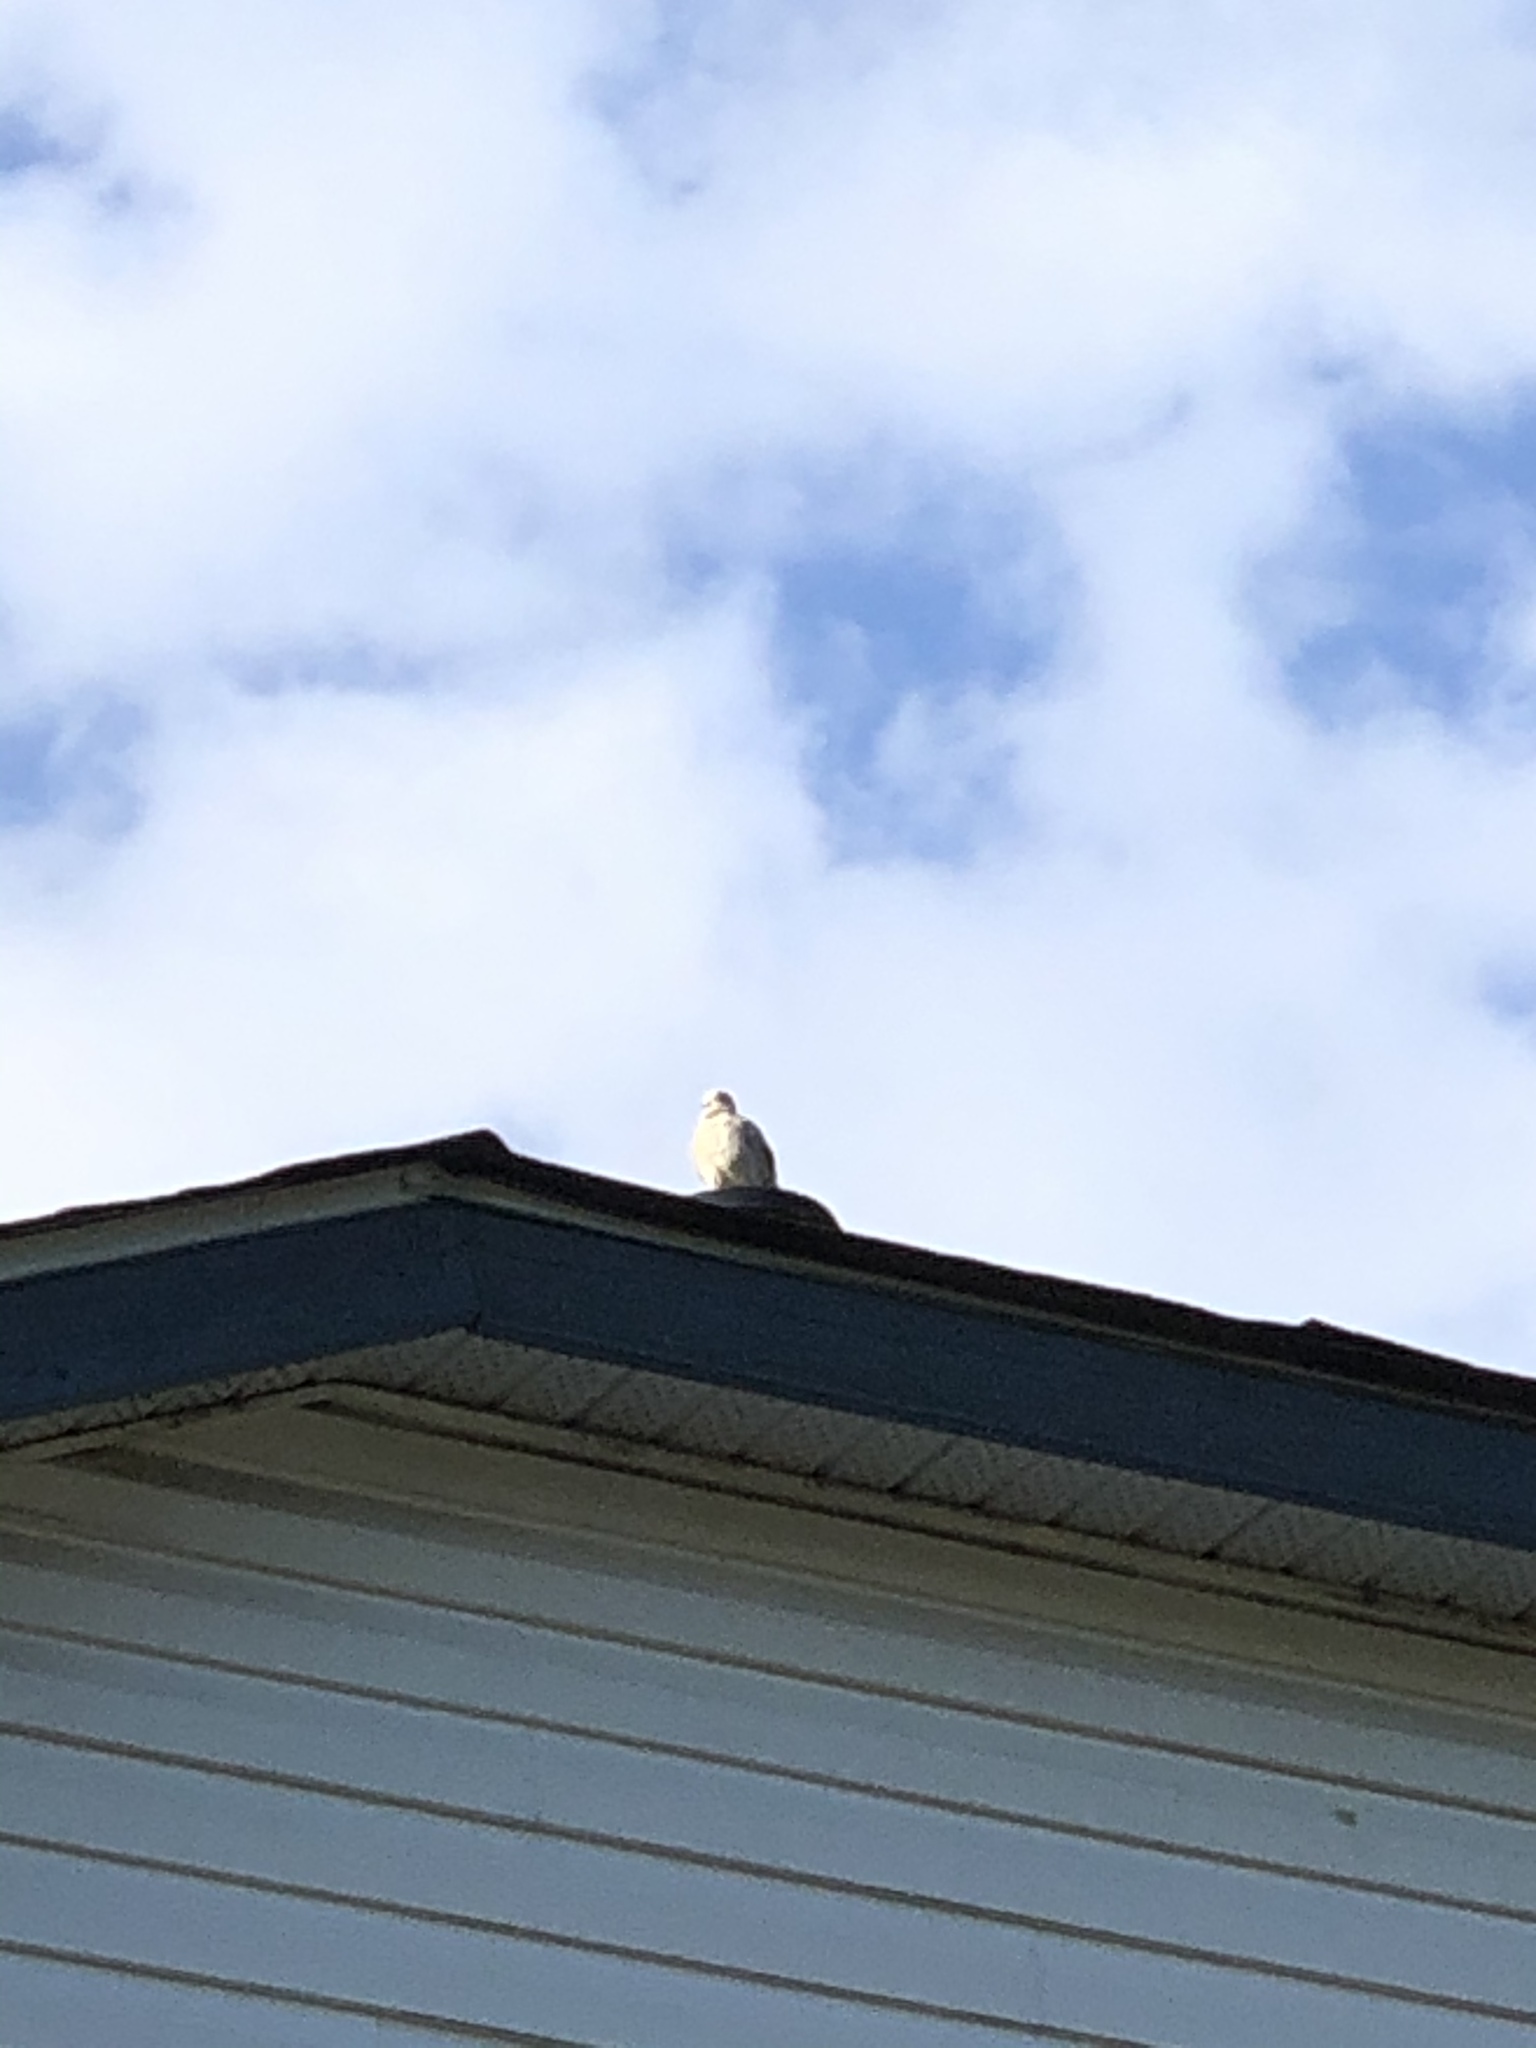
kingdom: Animalia
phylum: Chordata
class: Aves
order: Columbiformes
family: Columbidae
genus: Streptopelia
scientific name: Streptopelia decaocto
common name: Eurasian collared dove
